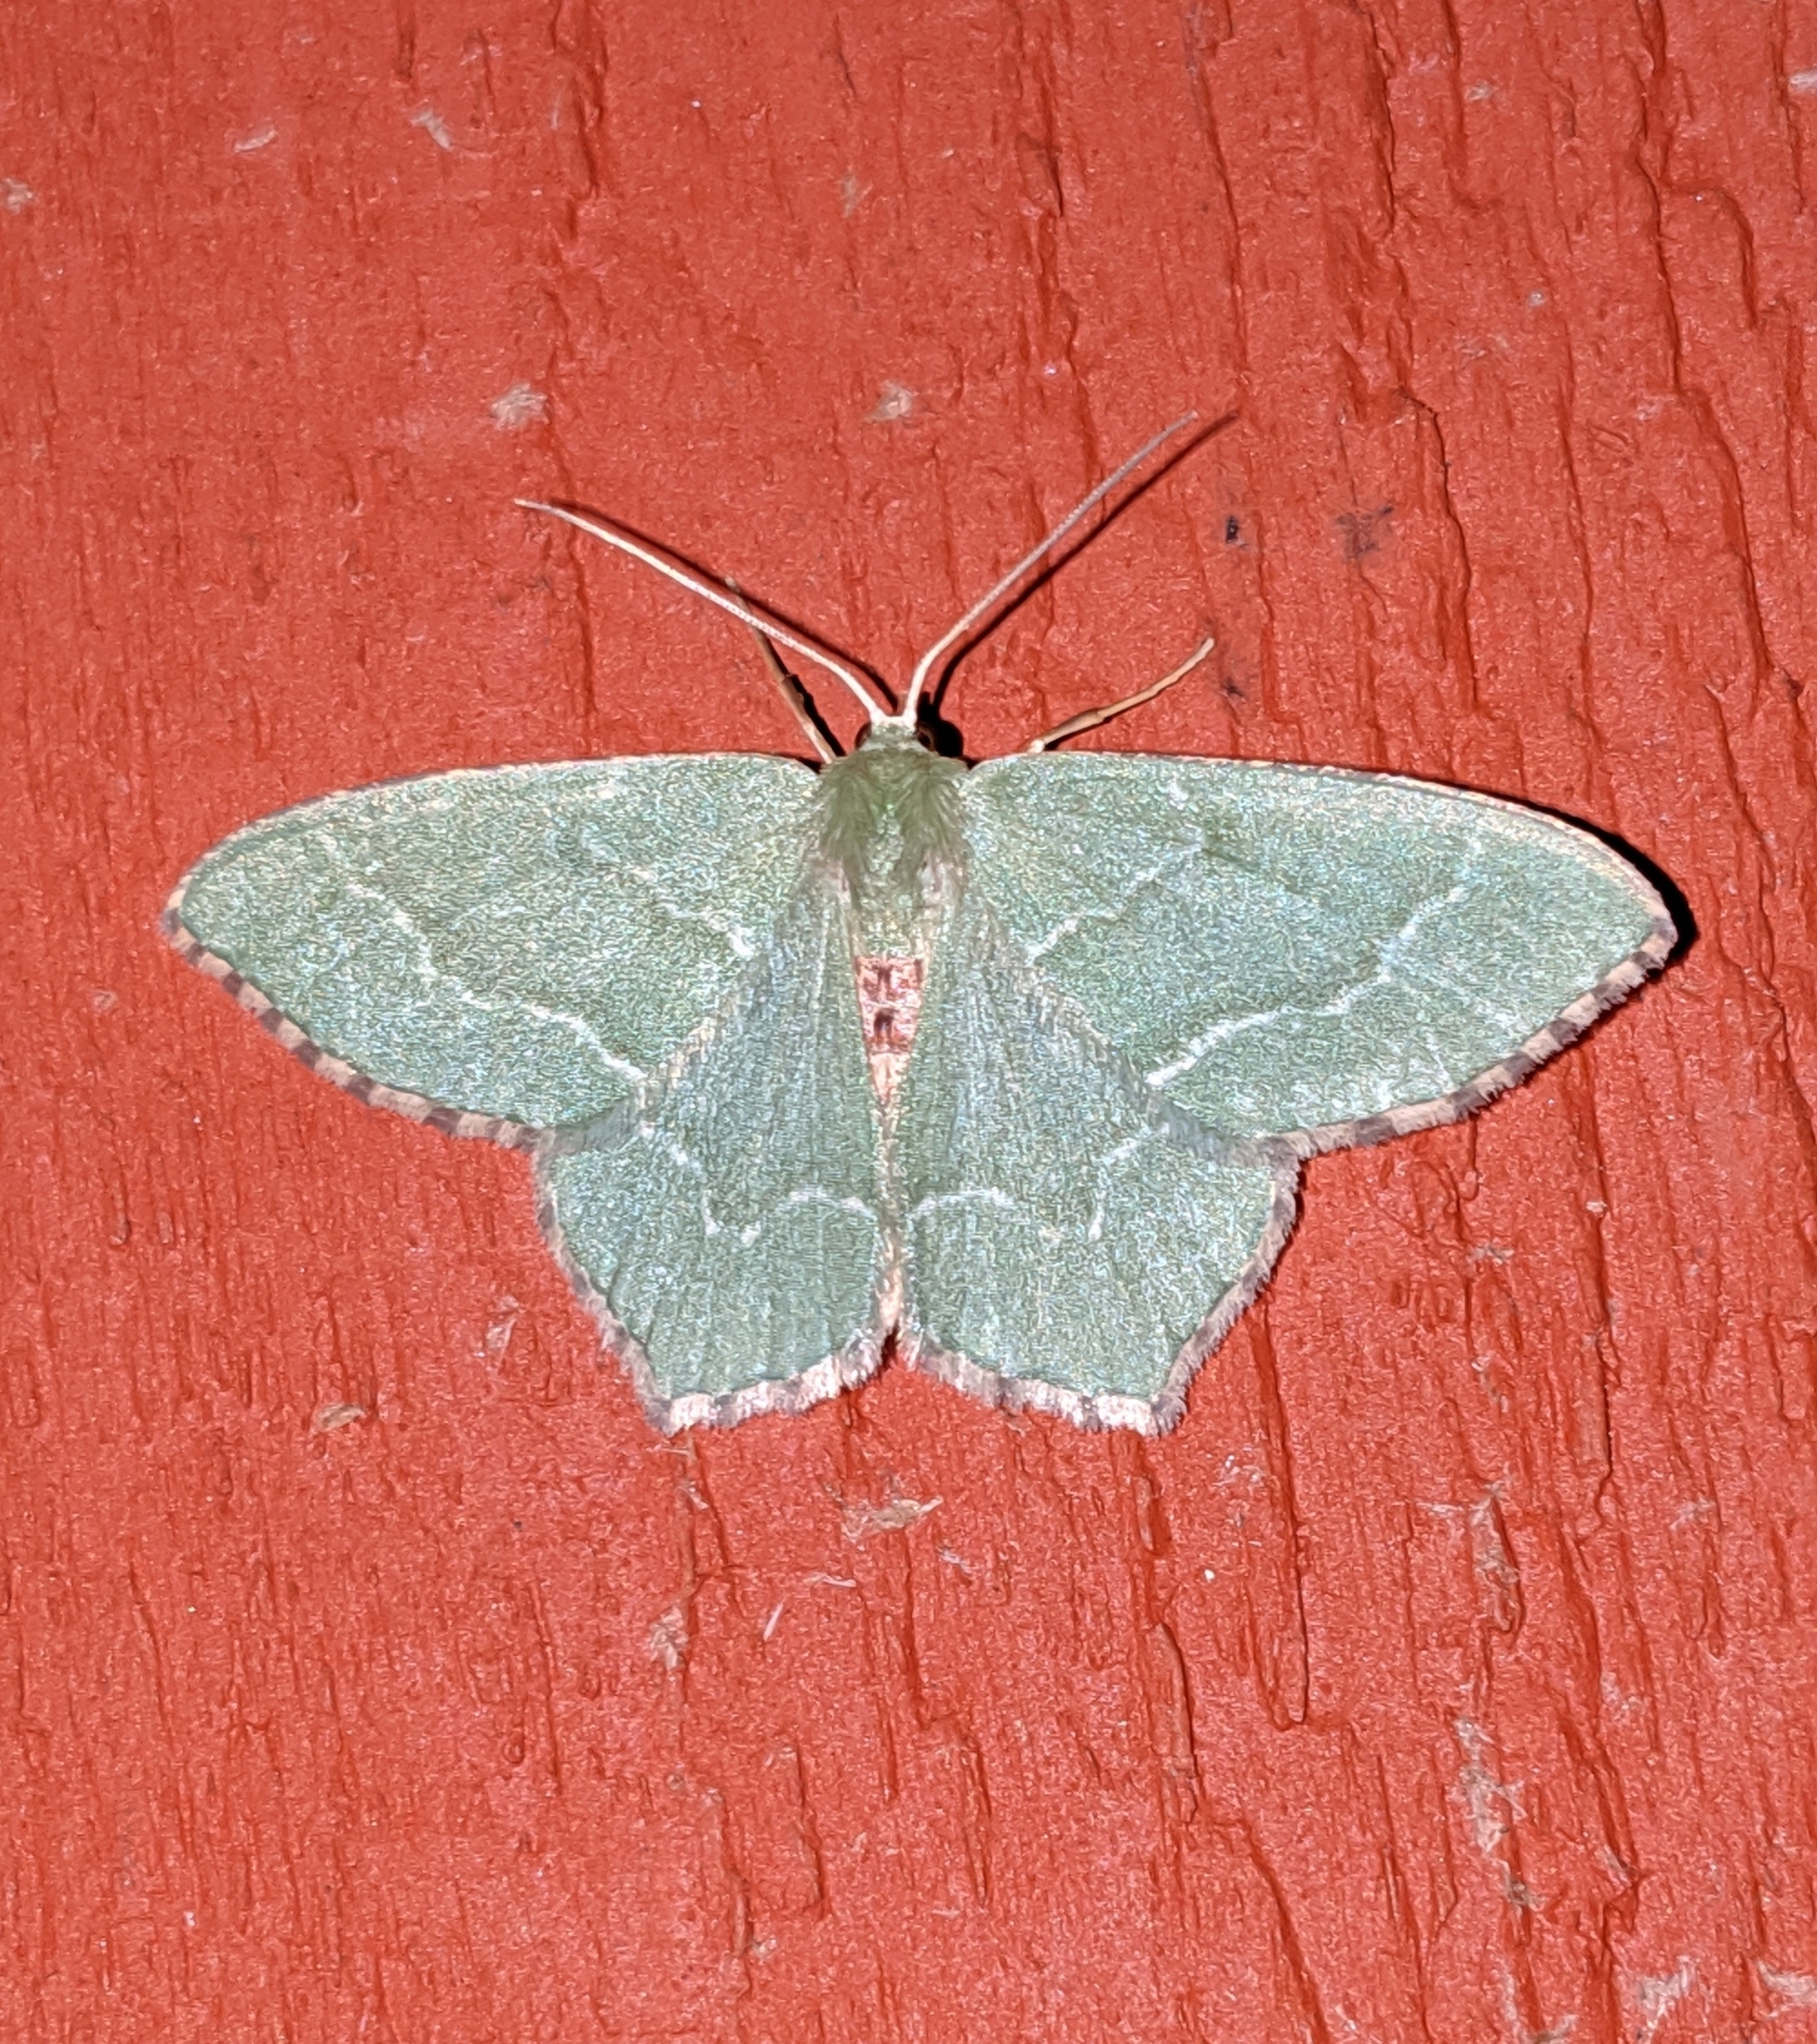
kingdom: Animalia
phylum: Arthropoda
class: Insecta
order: Lepidoptera
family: Geometridae
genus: Hemithea
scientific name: Hemithea aestivaria
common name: Common emerald
